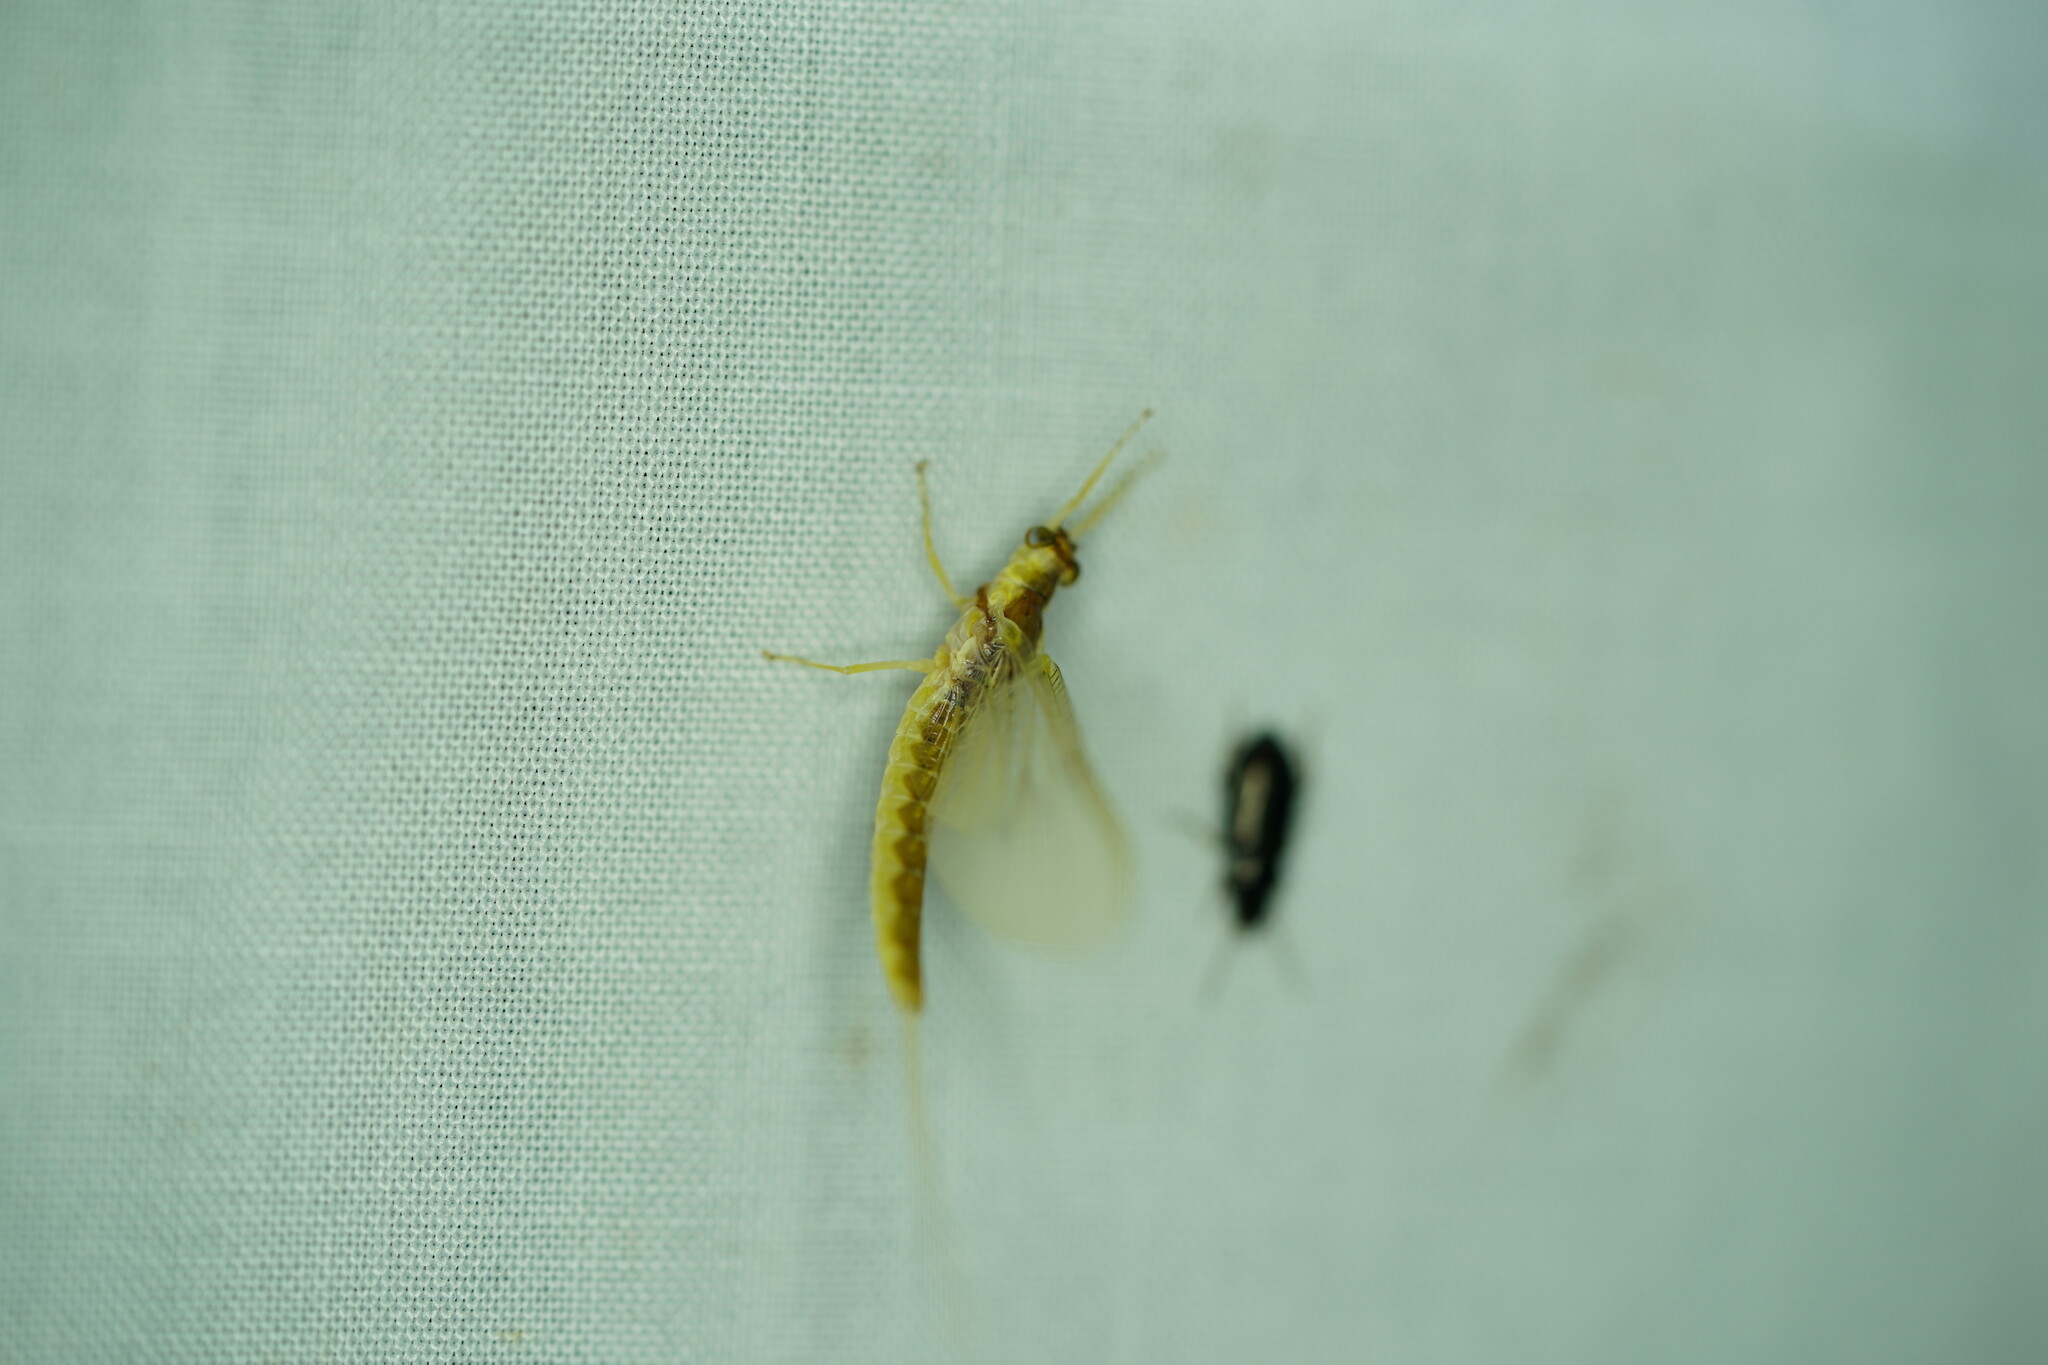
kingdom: Animalia
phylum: Arthropoda
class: Insecta
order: Ephemeroptera
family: Ephemeridae
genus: Pentagenia
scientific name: Pentagenia vittigera
